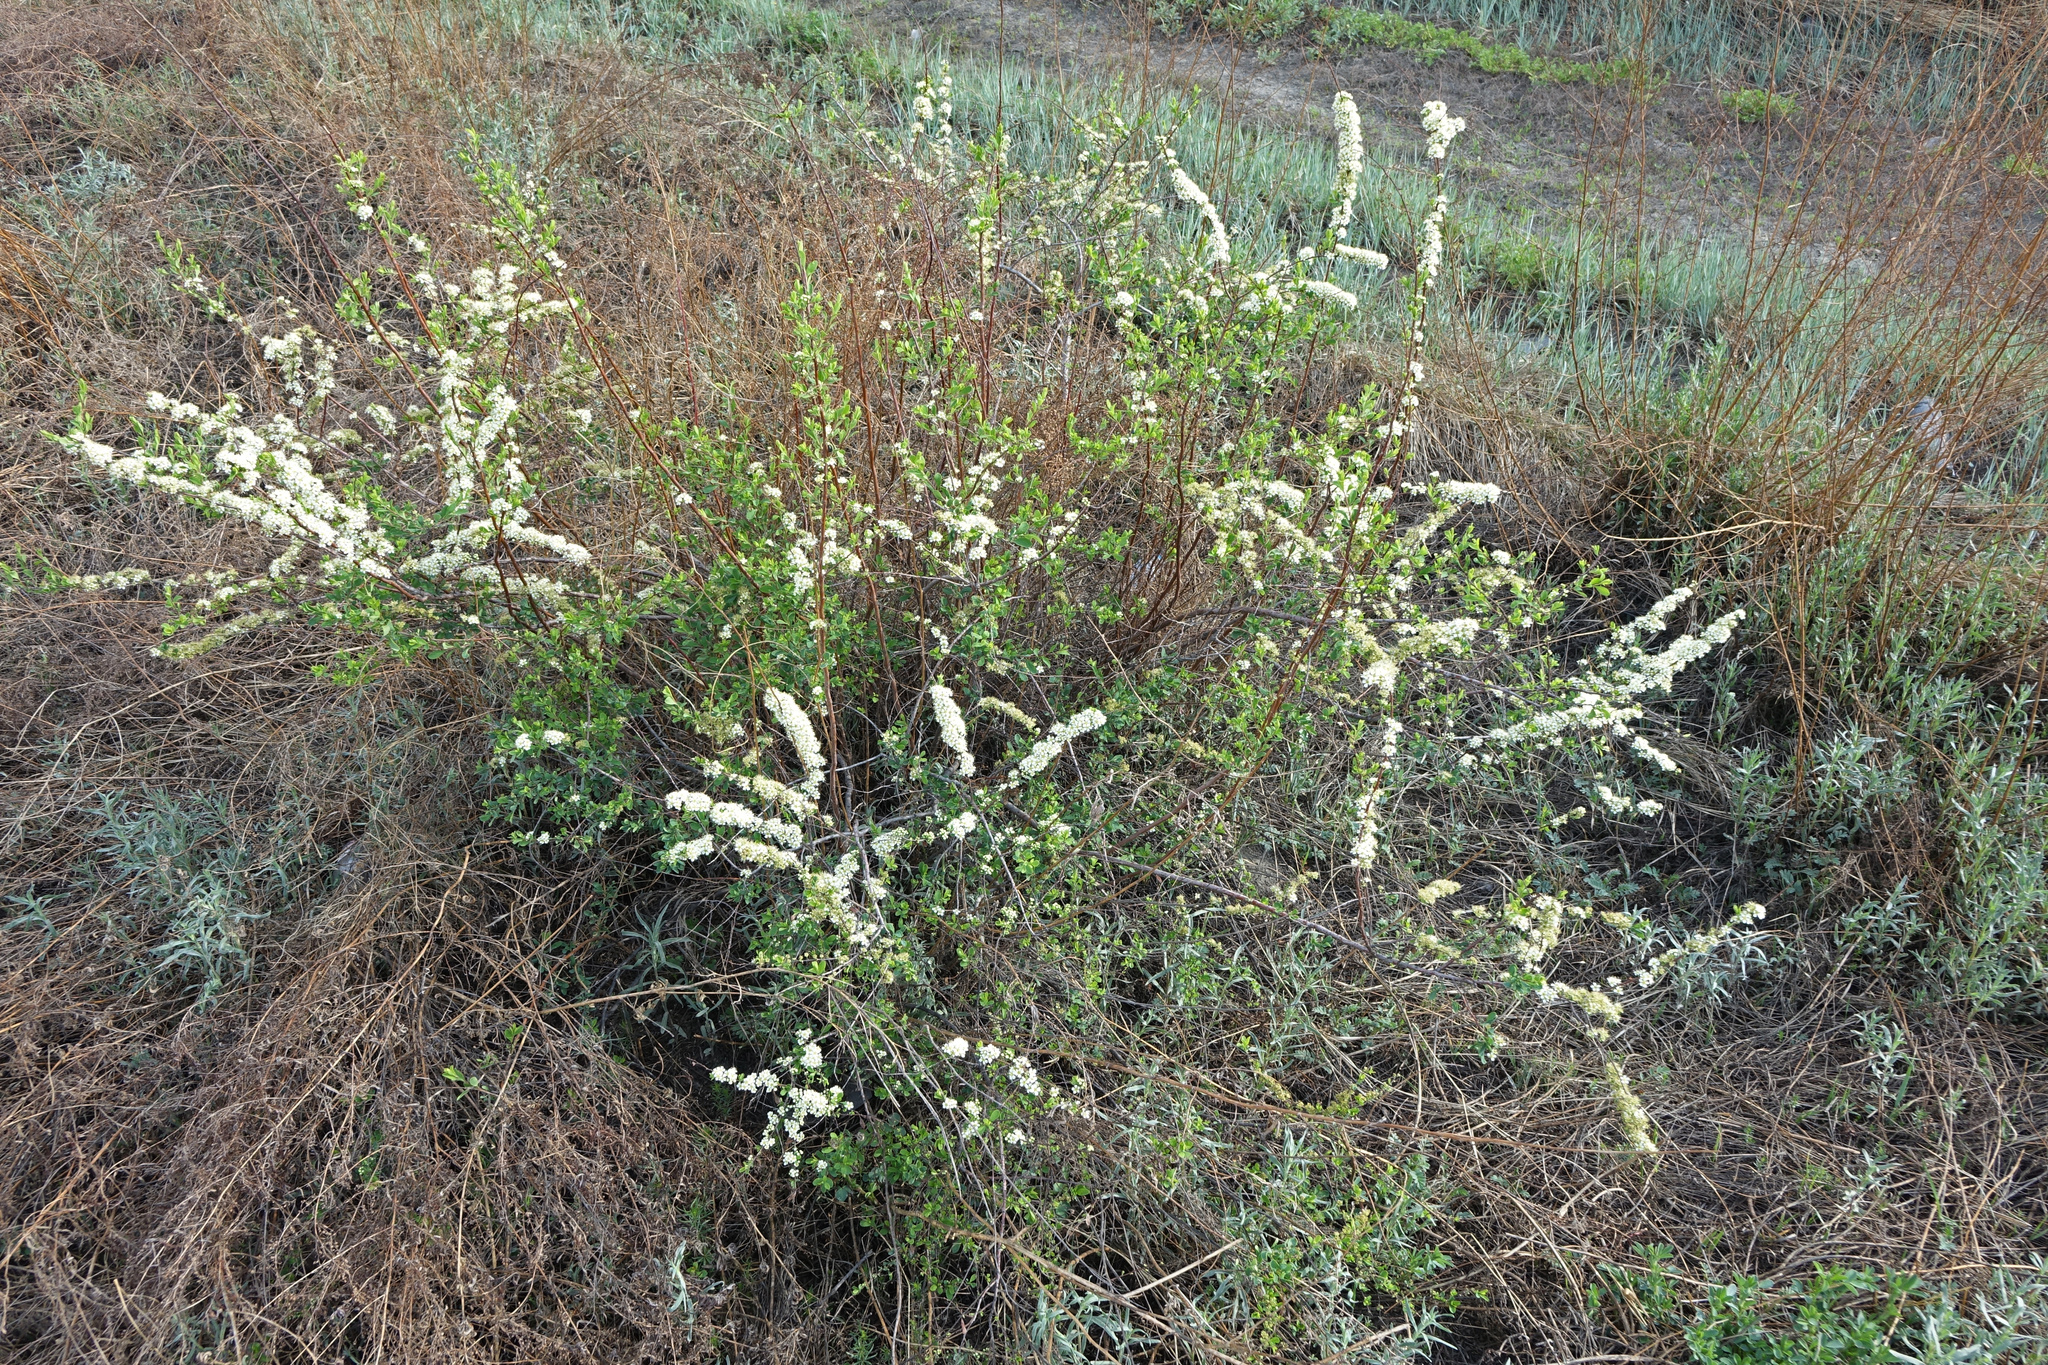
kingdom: Plantae
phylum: Tracheophyta
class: Magnoliopsida
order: Rosales
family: Rosaceae
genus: Spiraea
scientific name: Spiraea hypericifolia
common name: Iberian spirea
